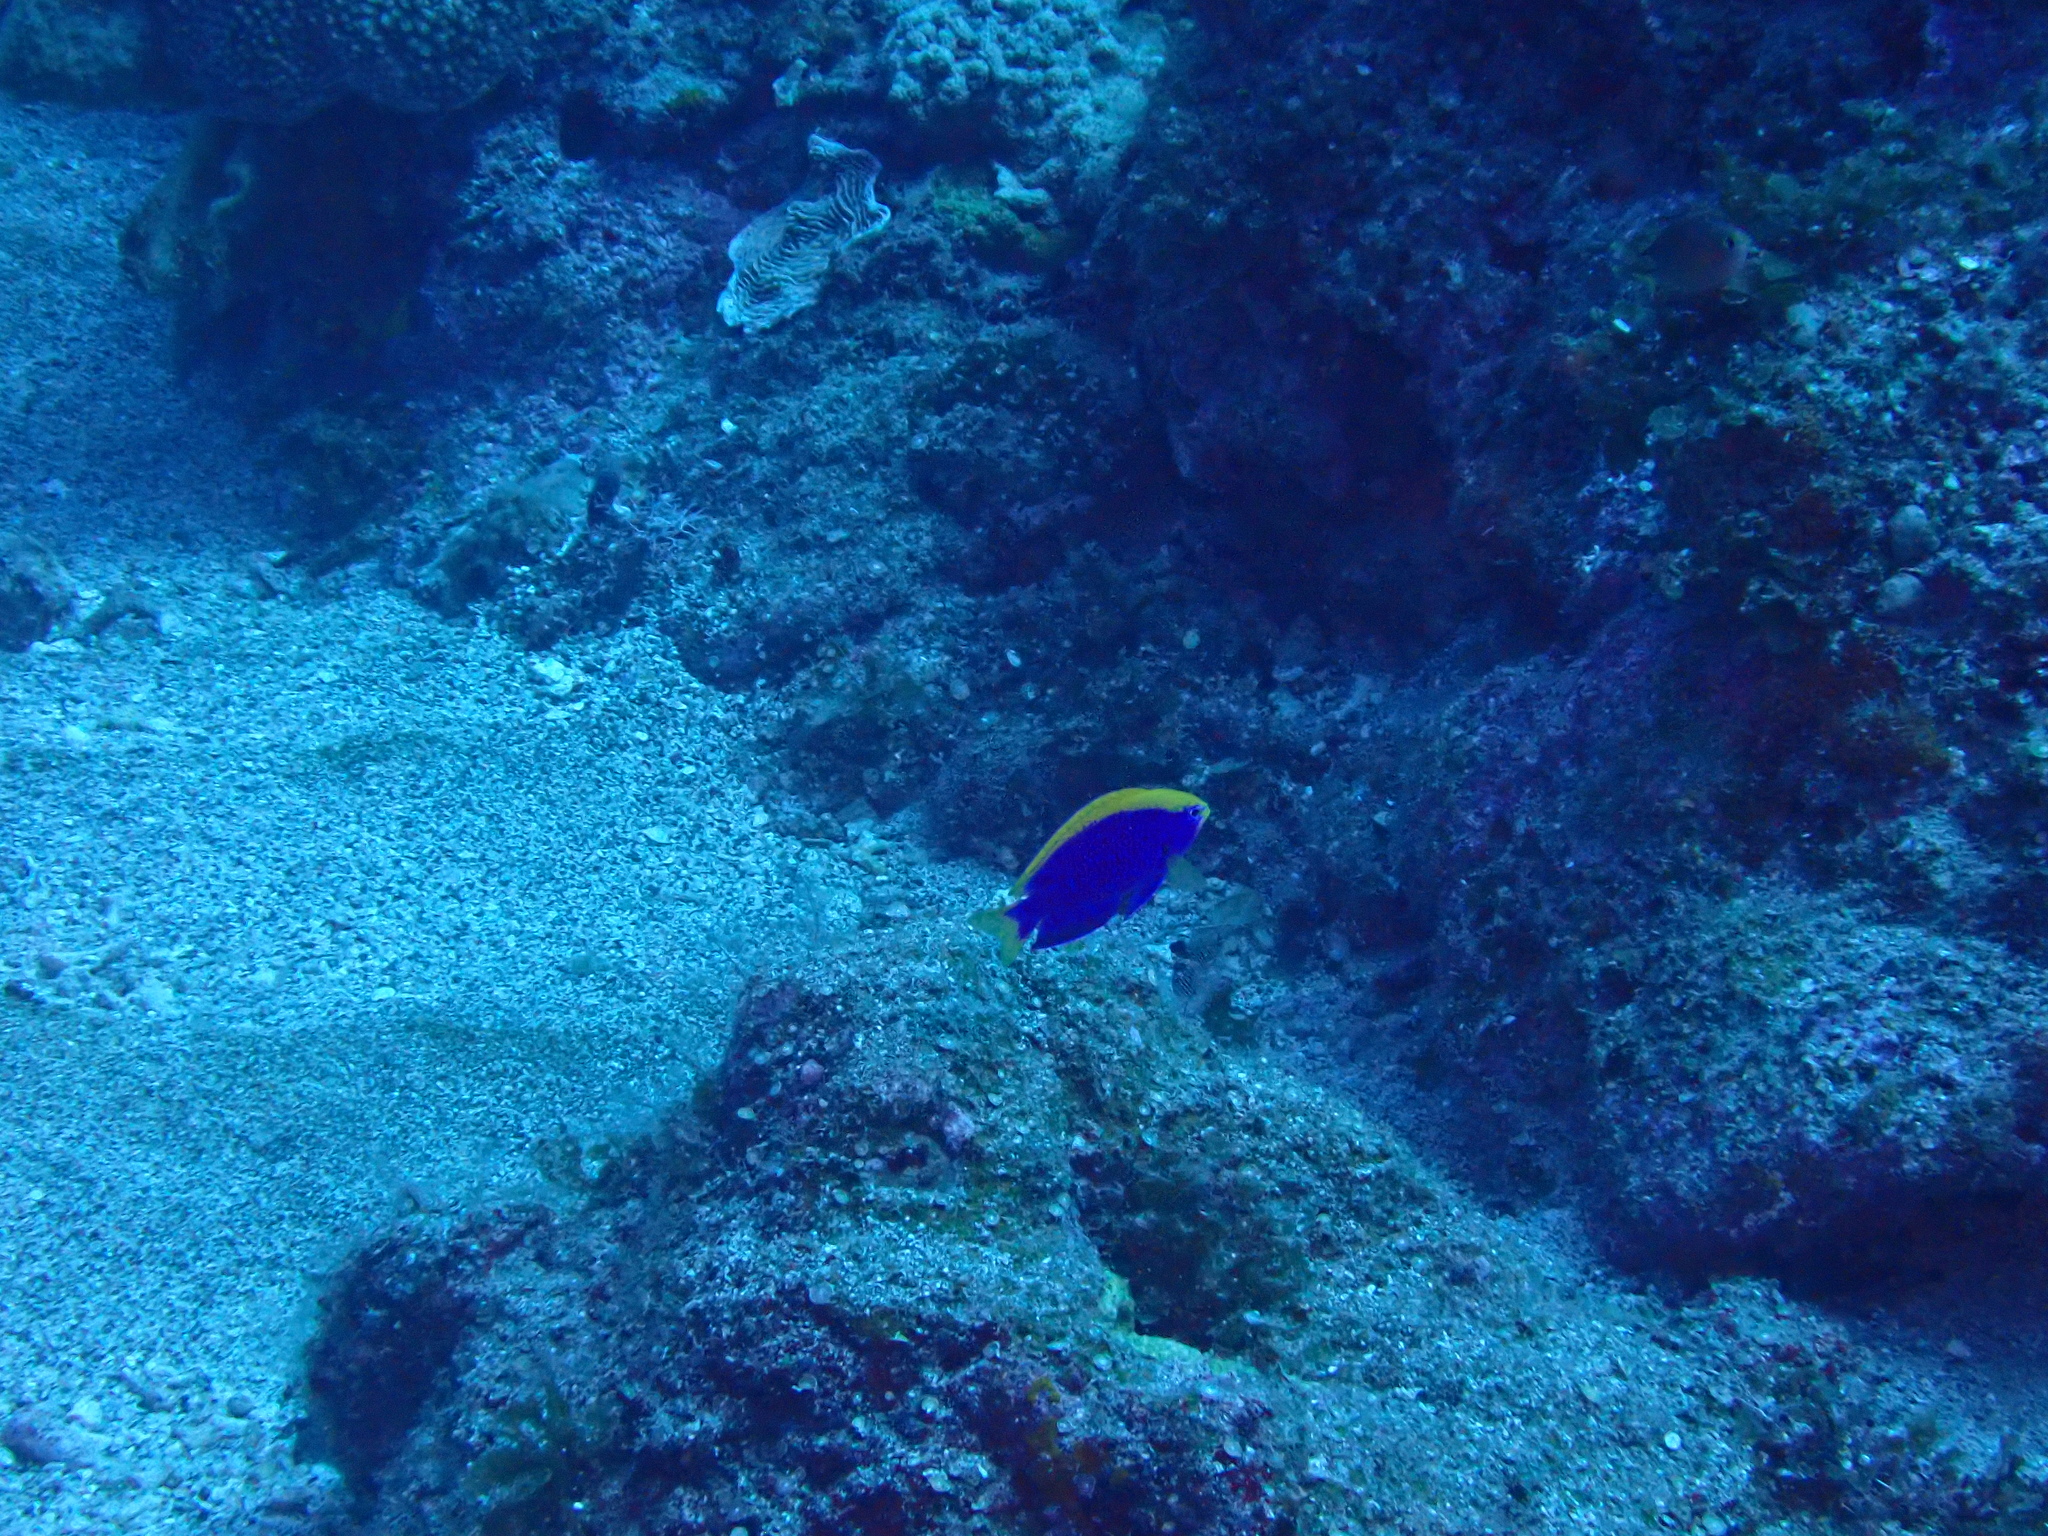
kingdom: Animalia
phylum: Chordata
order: Perciformes
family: Pomacentridae
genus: Chrysiptera
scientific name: Chrysiptera starcki
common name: Damselfish
